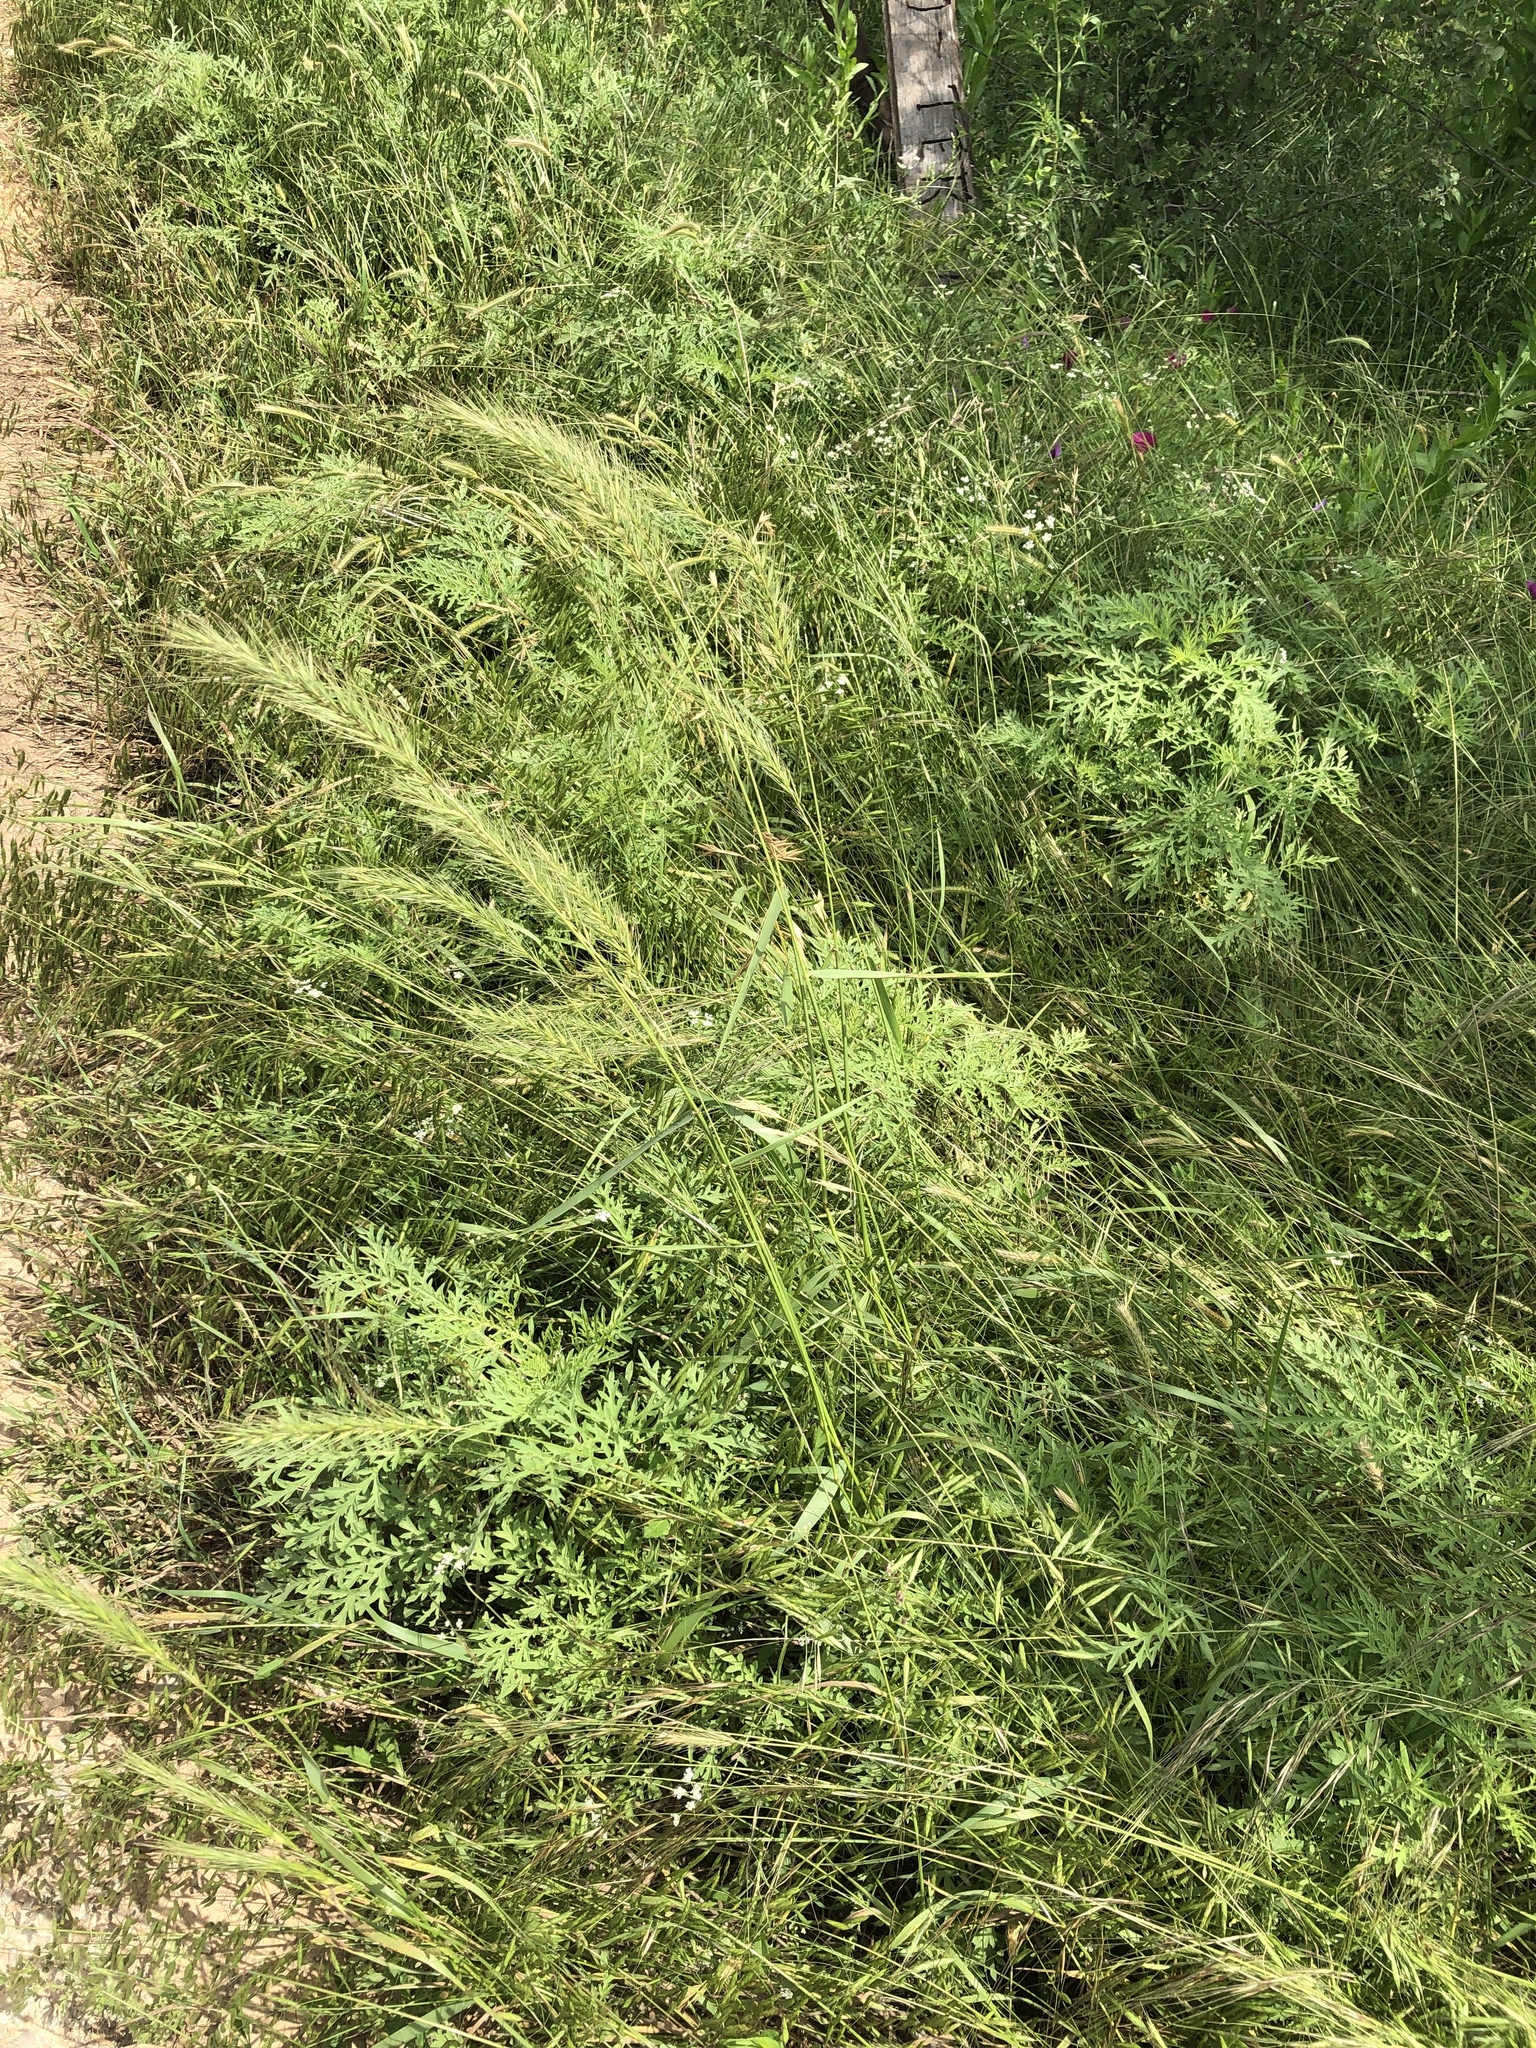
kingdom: Plantae
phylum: Tracheophyta
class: Liliopsida
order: Poales
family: Poaceae
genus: Elymus
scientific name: Elymus canadensis
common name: Canada wild rye
